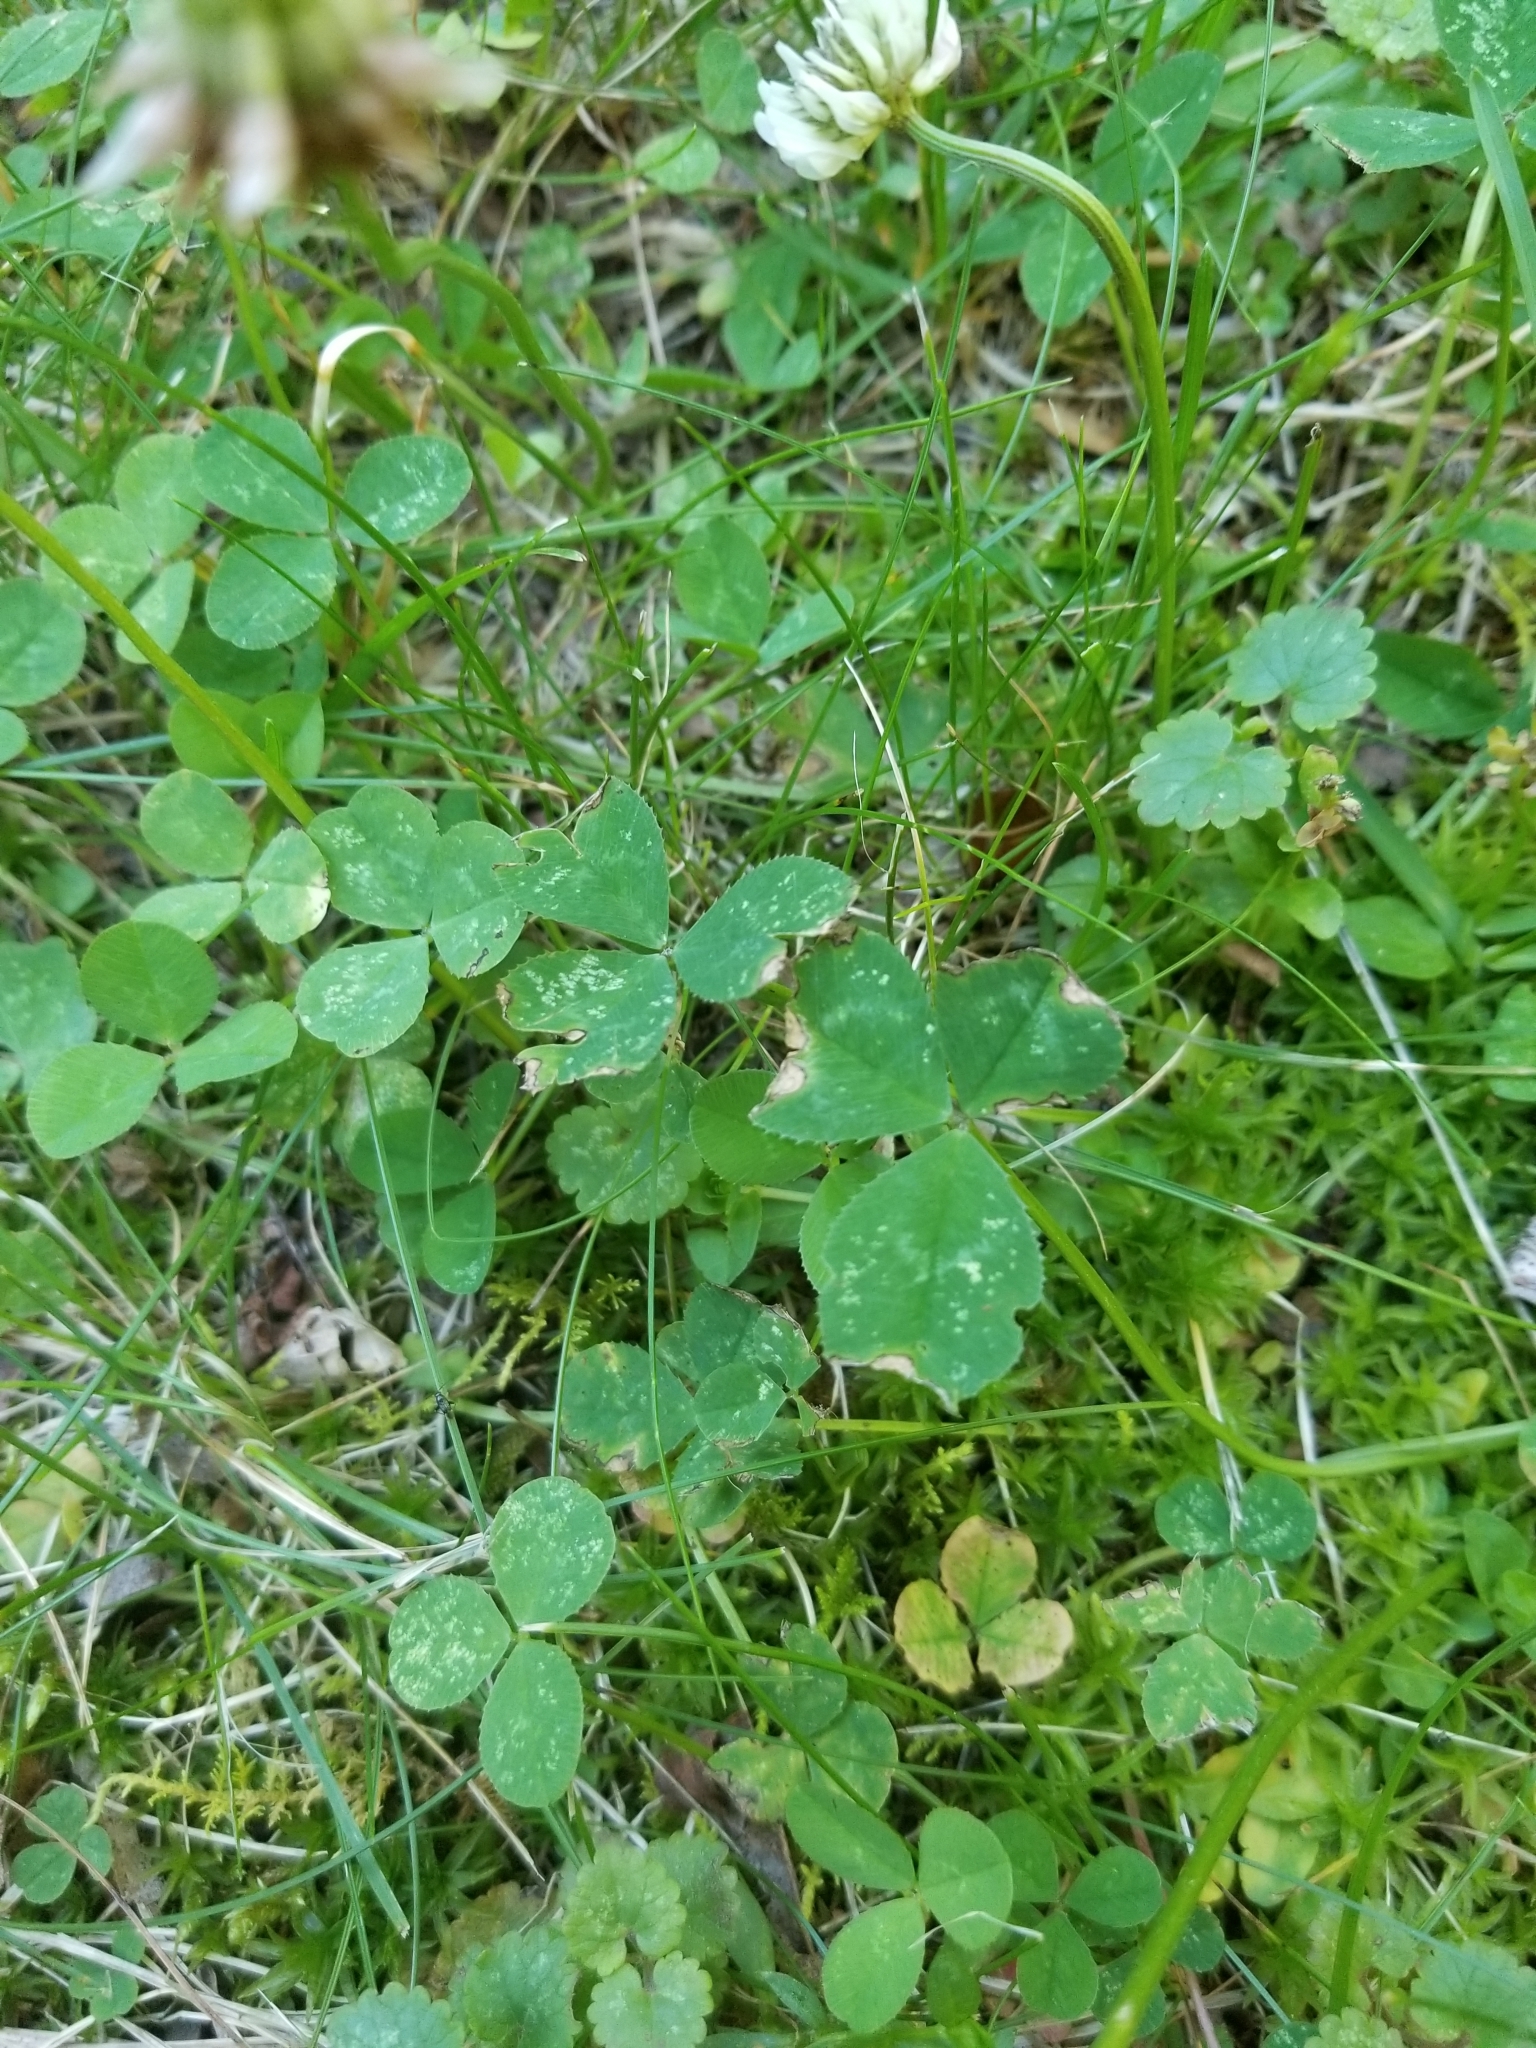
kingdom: Plantae
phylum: Tracheophyta
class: Magnoliopsida
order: Fabales
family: Fabaceae
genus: Trifolium
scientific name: Trifolium repens
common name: White clover
